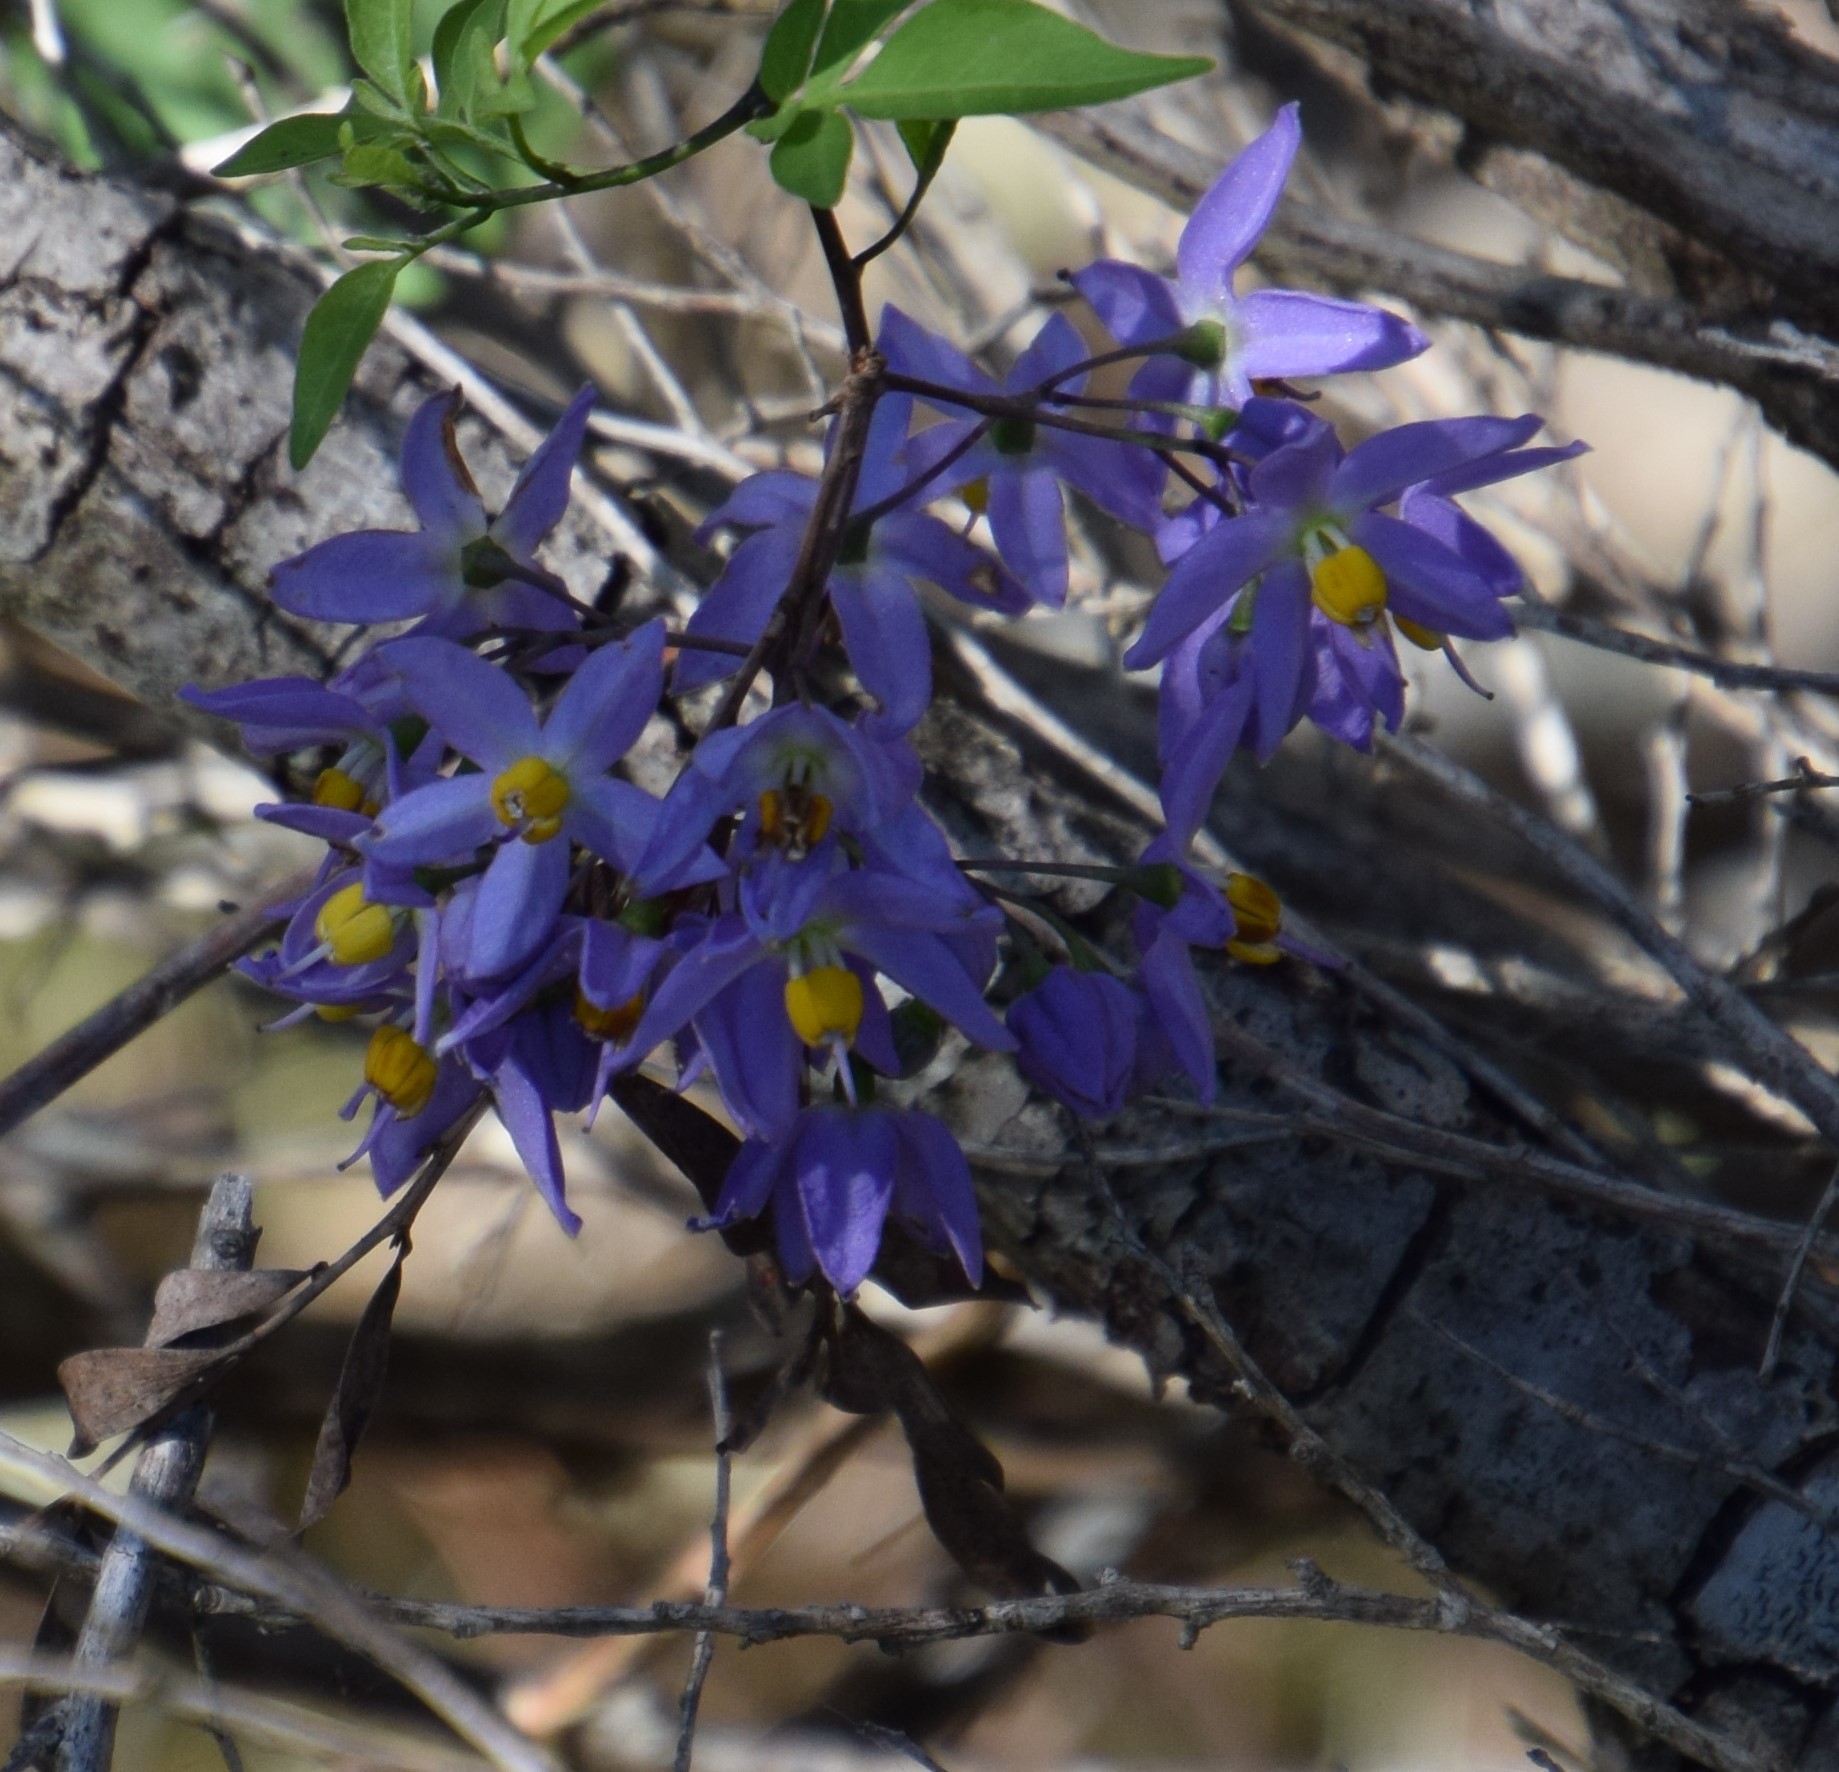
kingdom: Plantae
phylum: Tracheophyta
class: Magnoliopsida
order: Solanales
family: Solanaceae
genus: Solanum
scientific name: Solanum seaforthianum
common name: Brazilian nightshade
